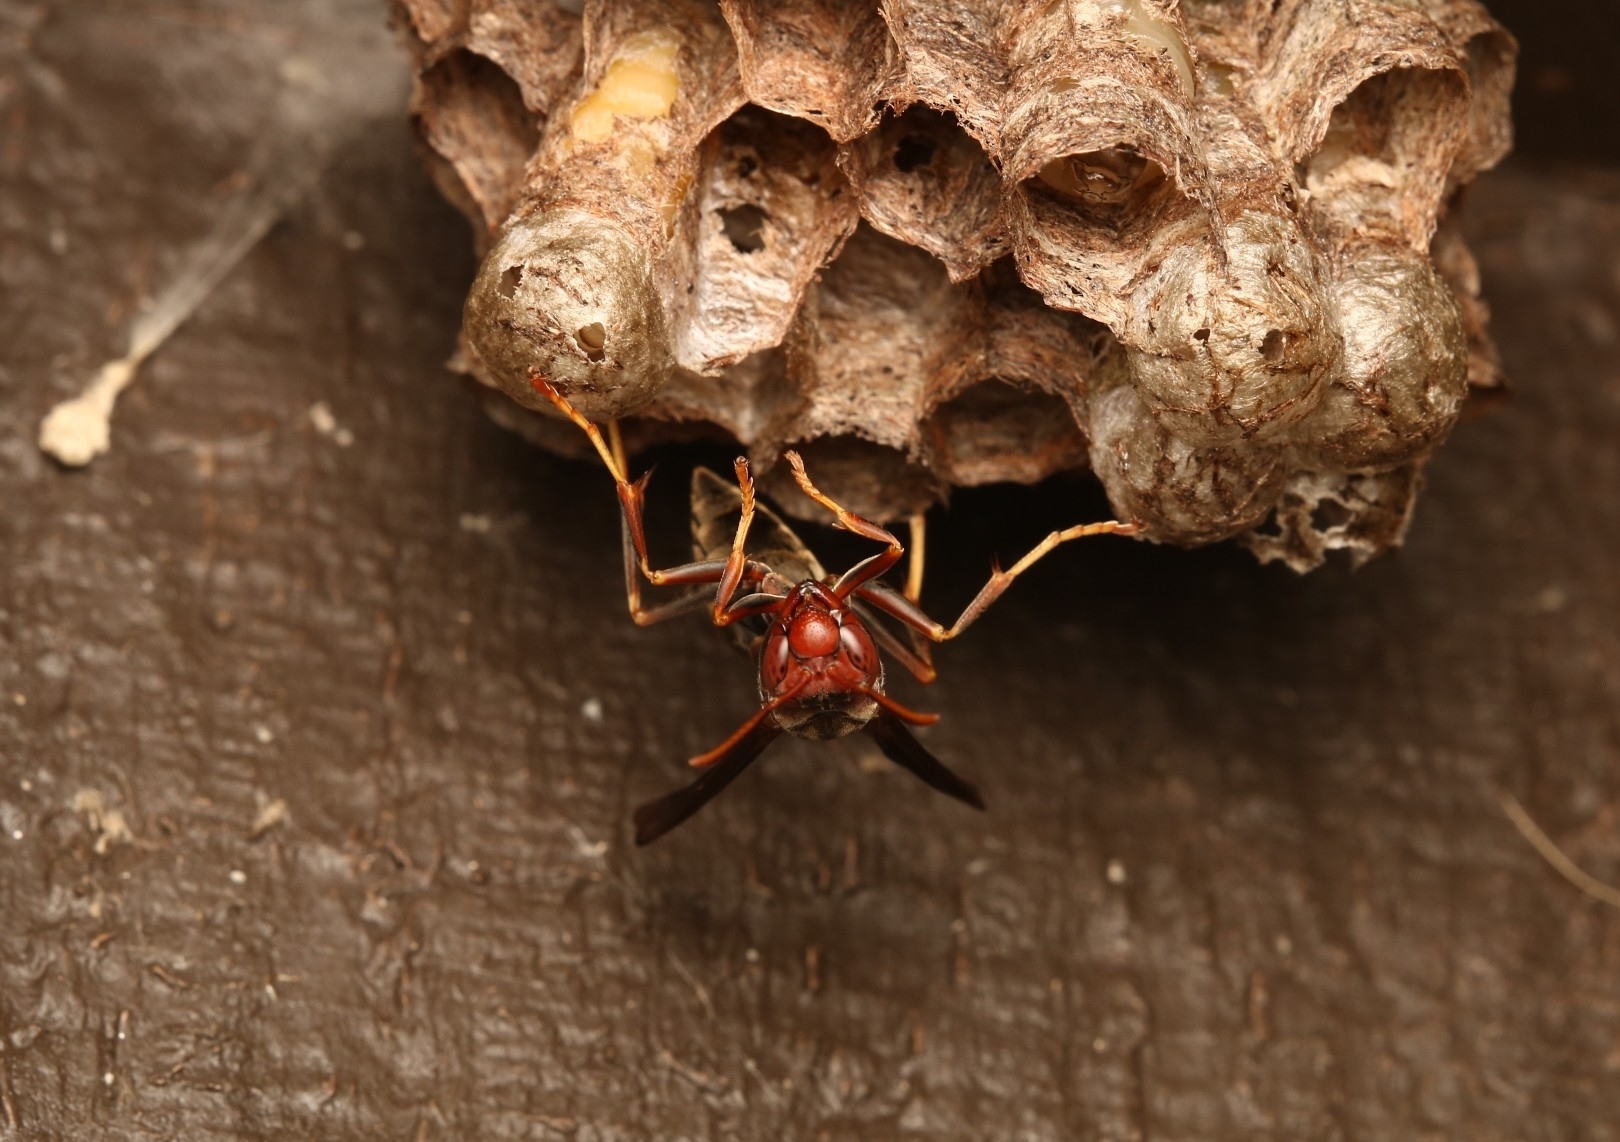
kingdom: Animalia
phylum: Arthropoda
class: Insecta
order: Hymenoptera
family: Eumenidae
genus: Polistes
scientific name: Polistes metricus
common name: Metric paper wasp
